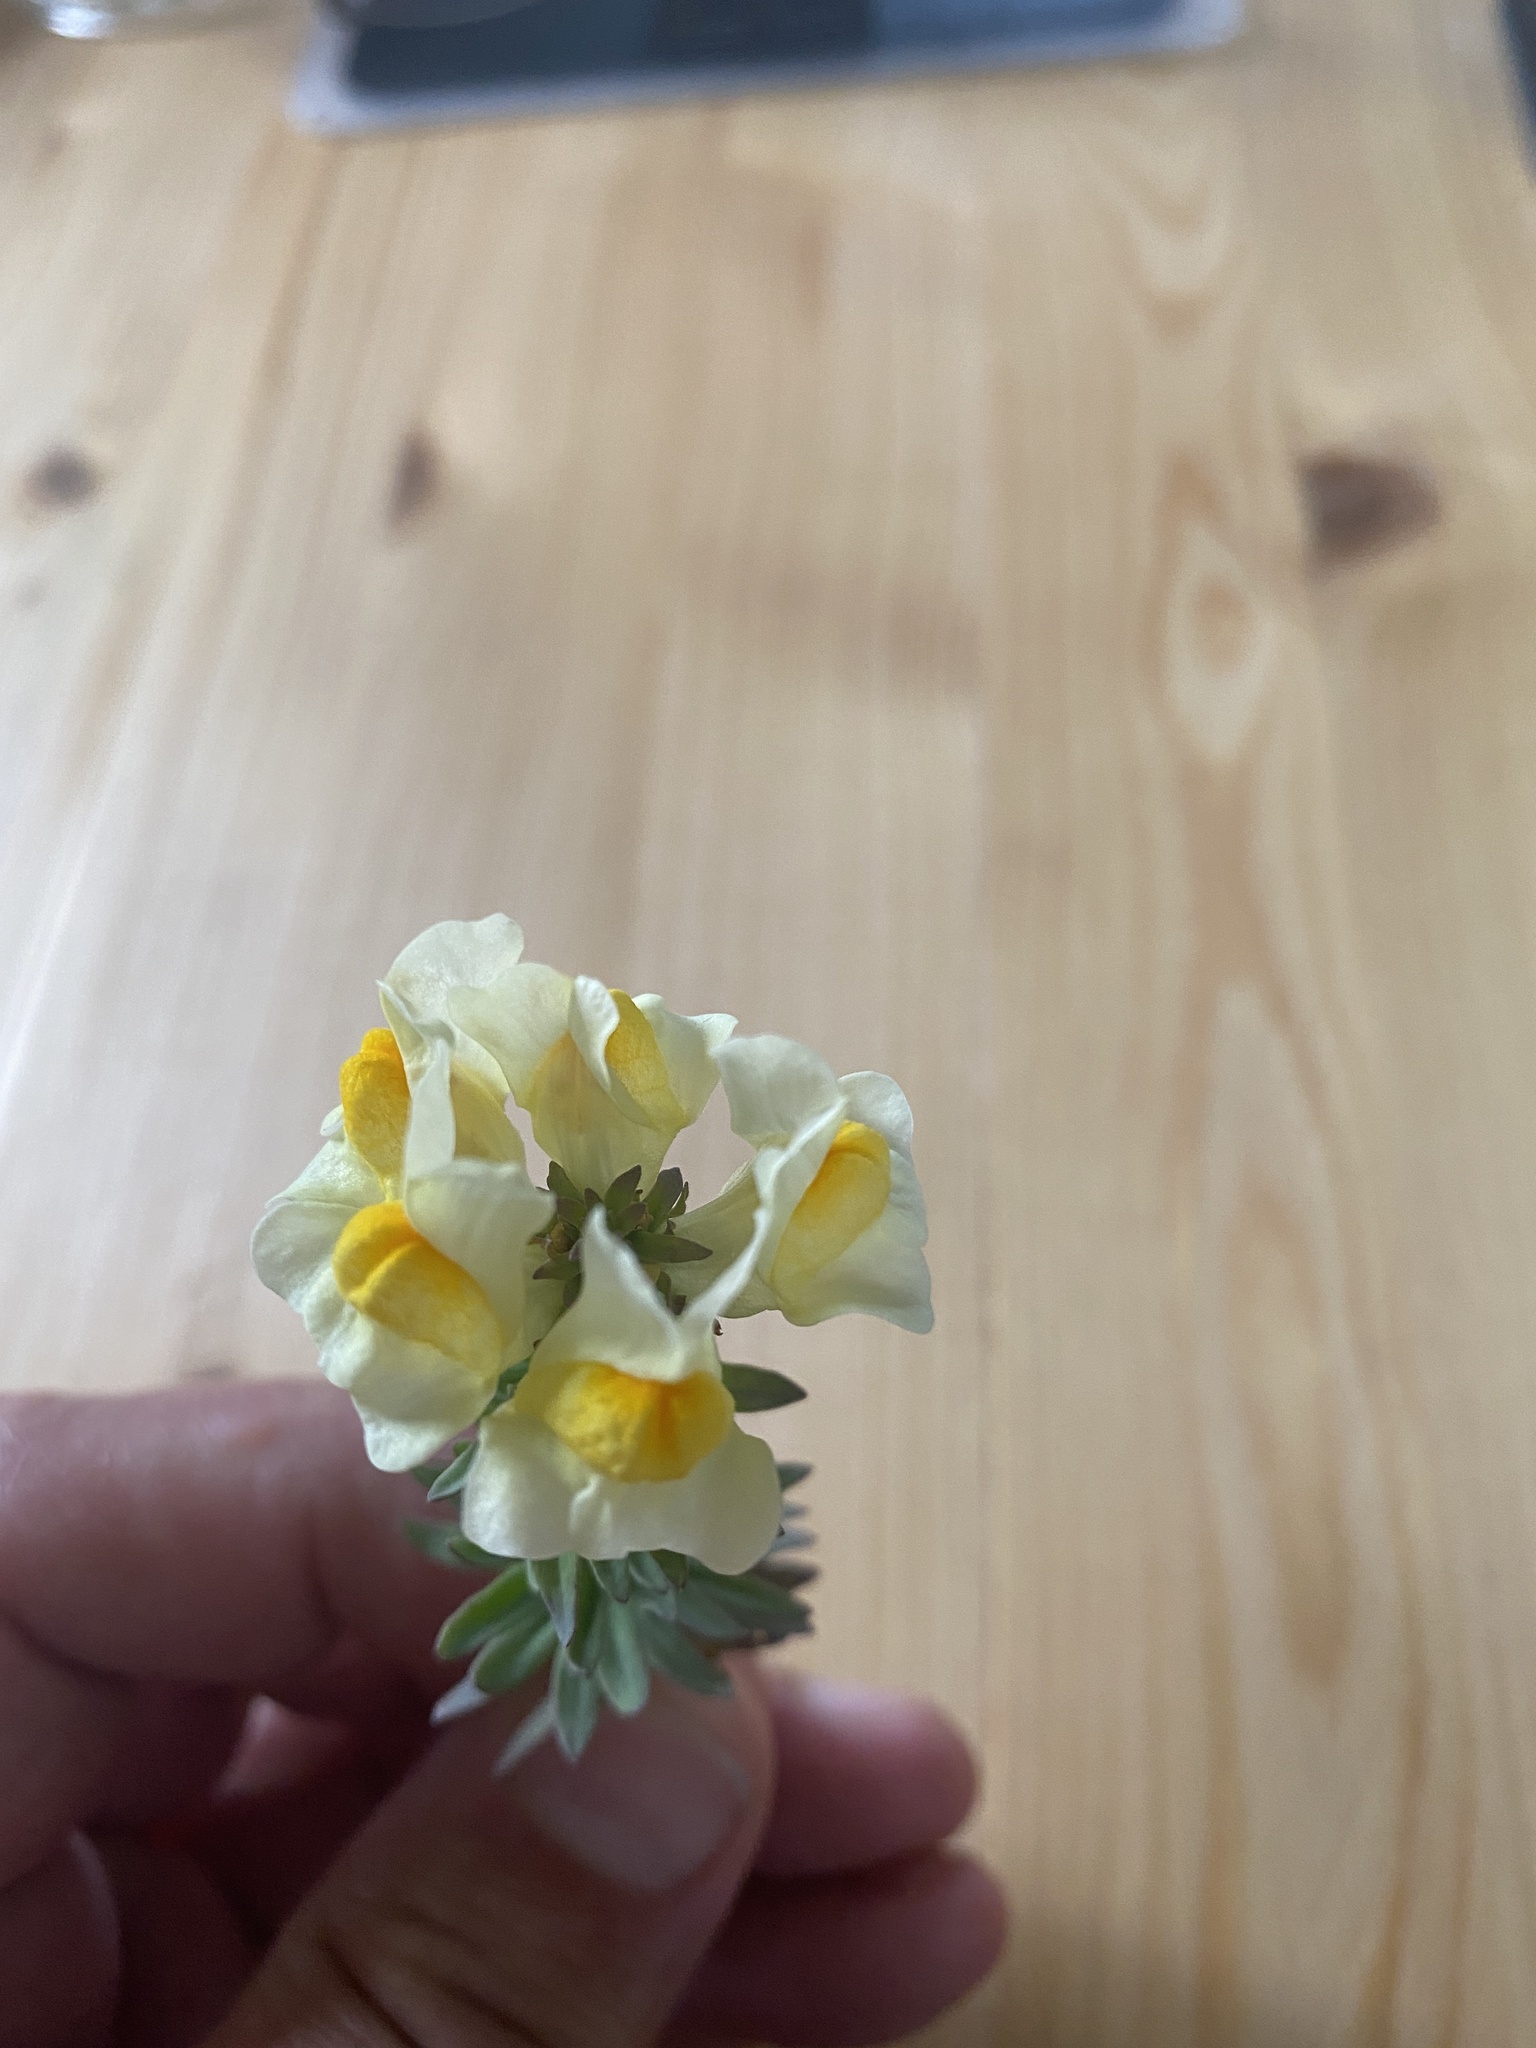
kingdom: Plantae
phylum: Tracheophyta
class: Magnoliopsida
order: Lamiales
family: Plantaginaceae
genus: Linaria
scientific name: Linaria vulgaris
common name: Butter and eggs
